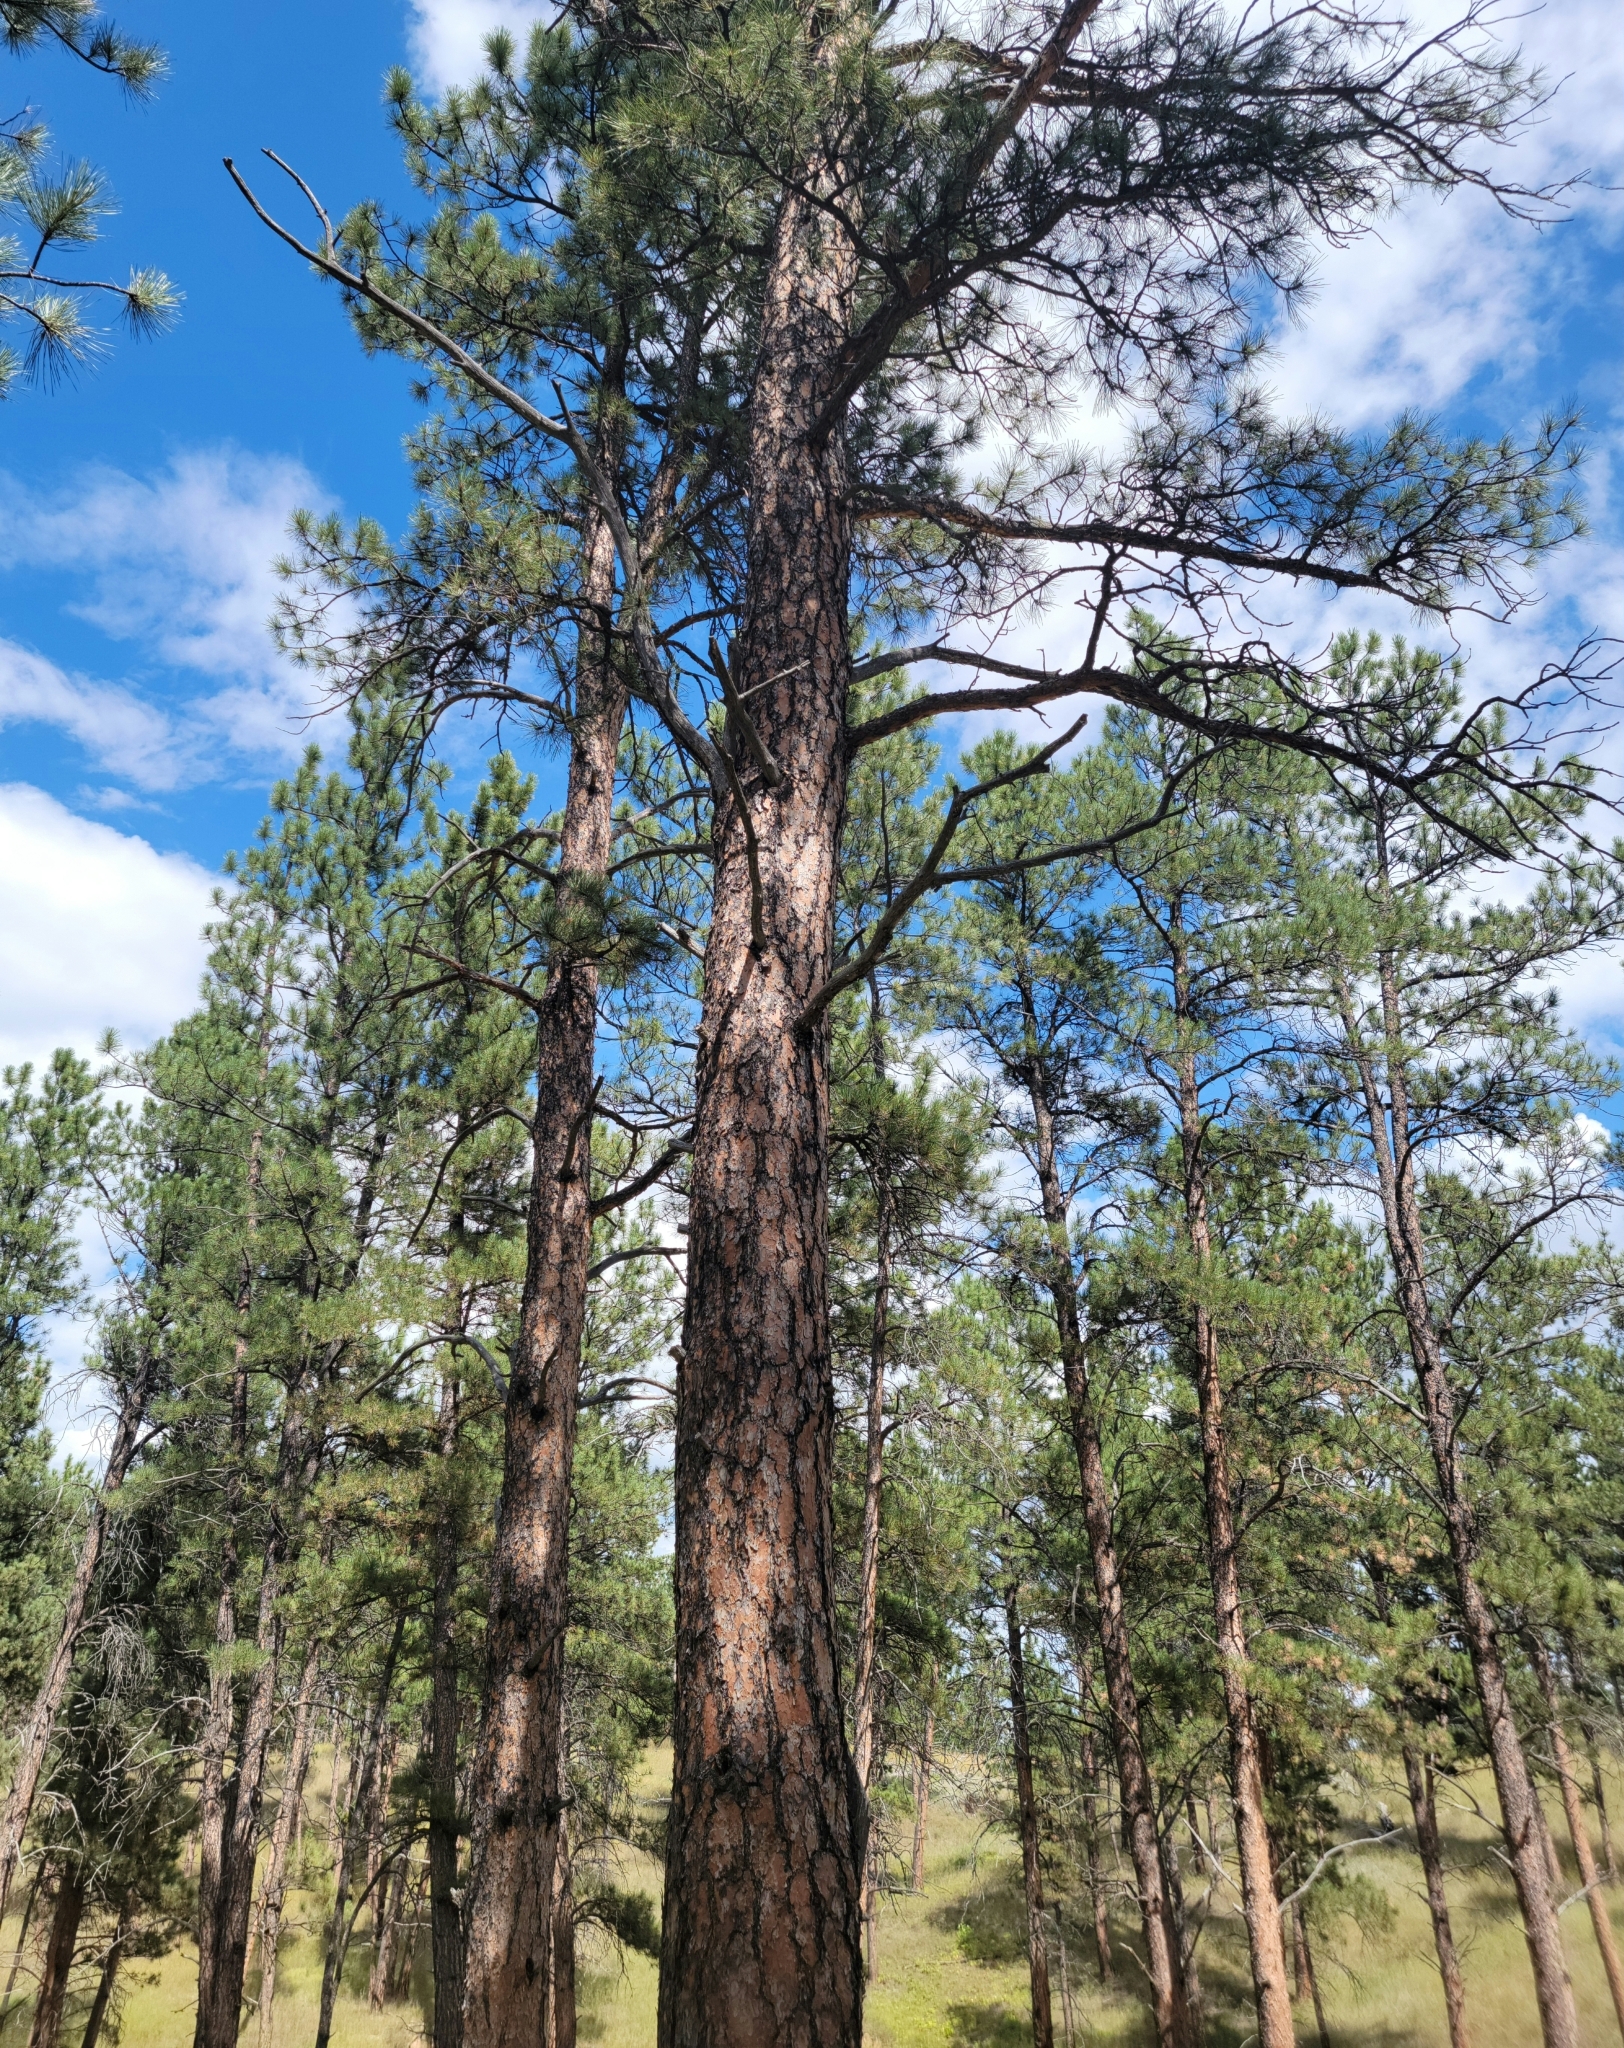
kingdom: Plantae
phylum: Tracheophyta
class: Pinopsida
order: Pinales
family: Pinaceae
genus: Pinus
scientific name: Pinus ponderosa
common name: Western yellow-pine
